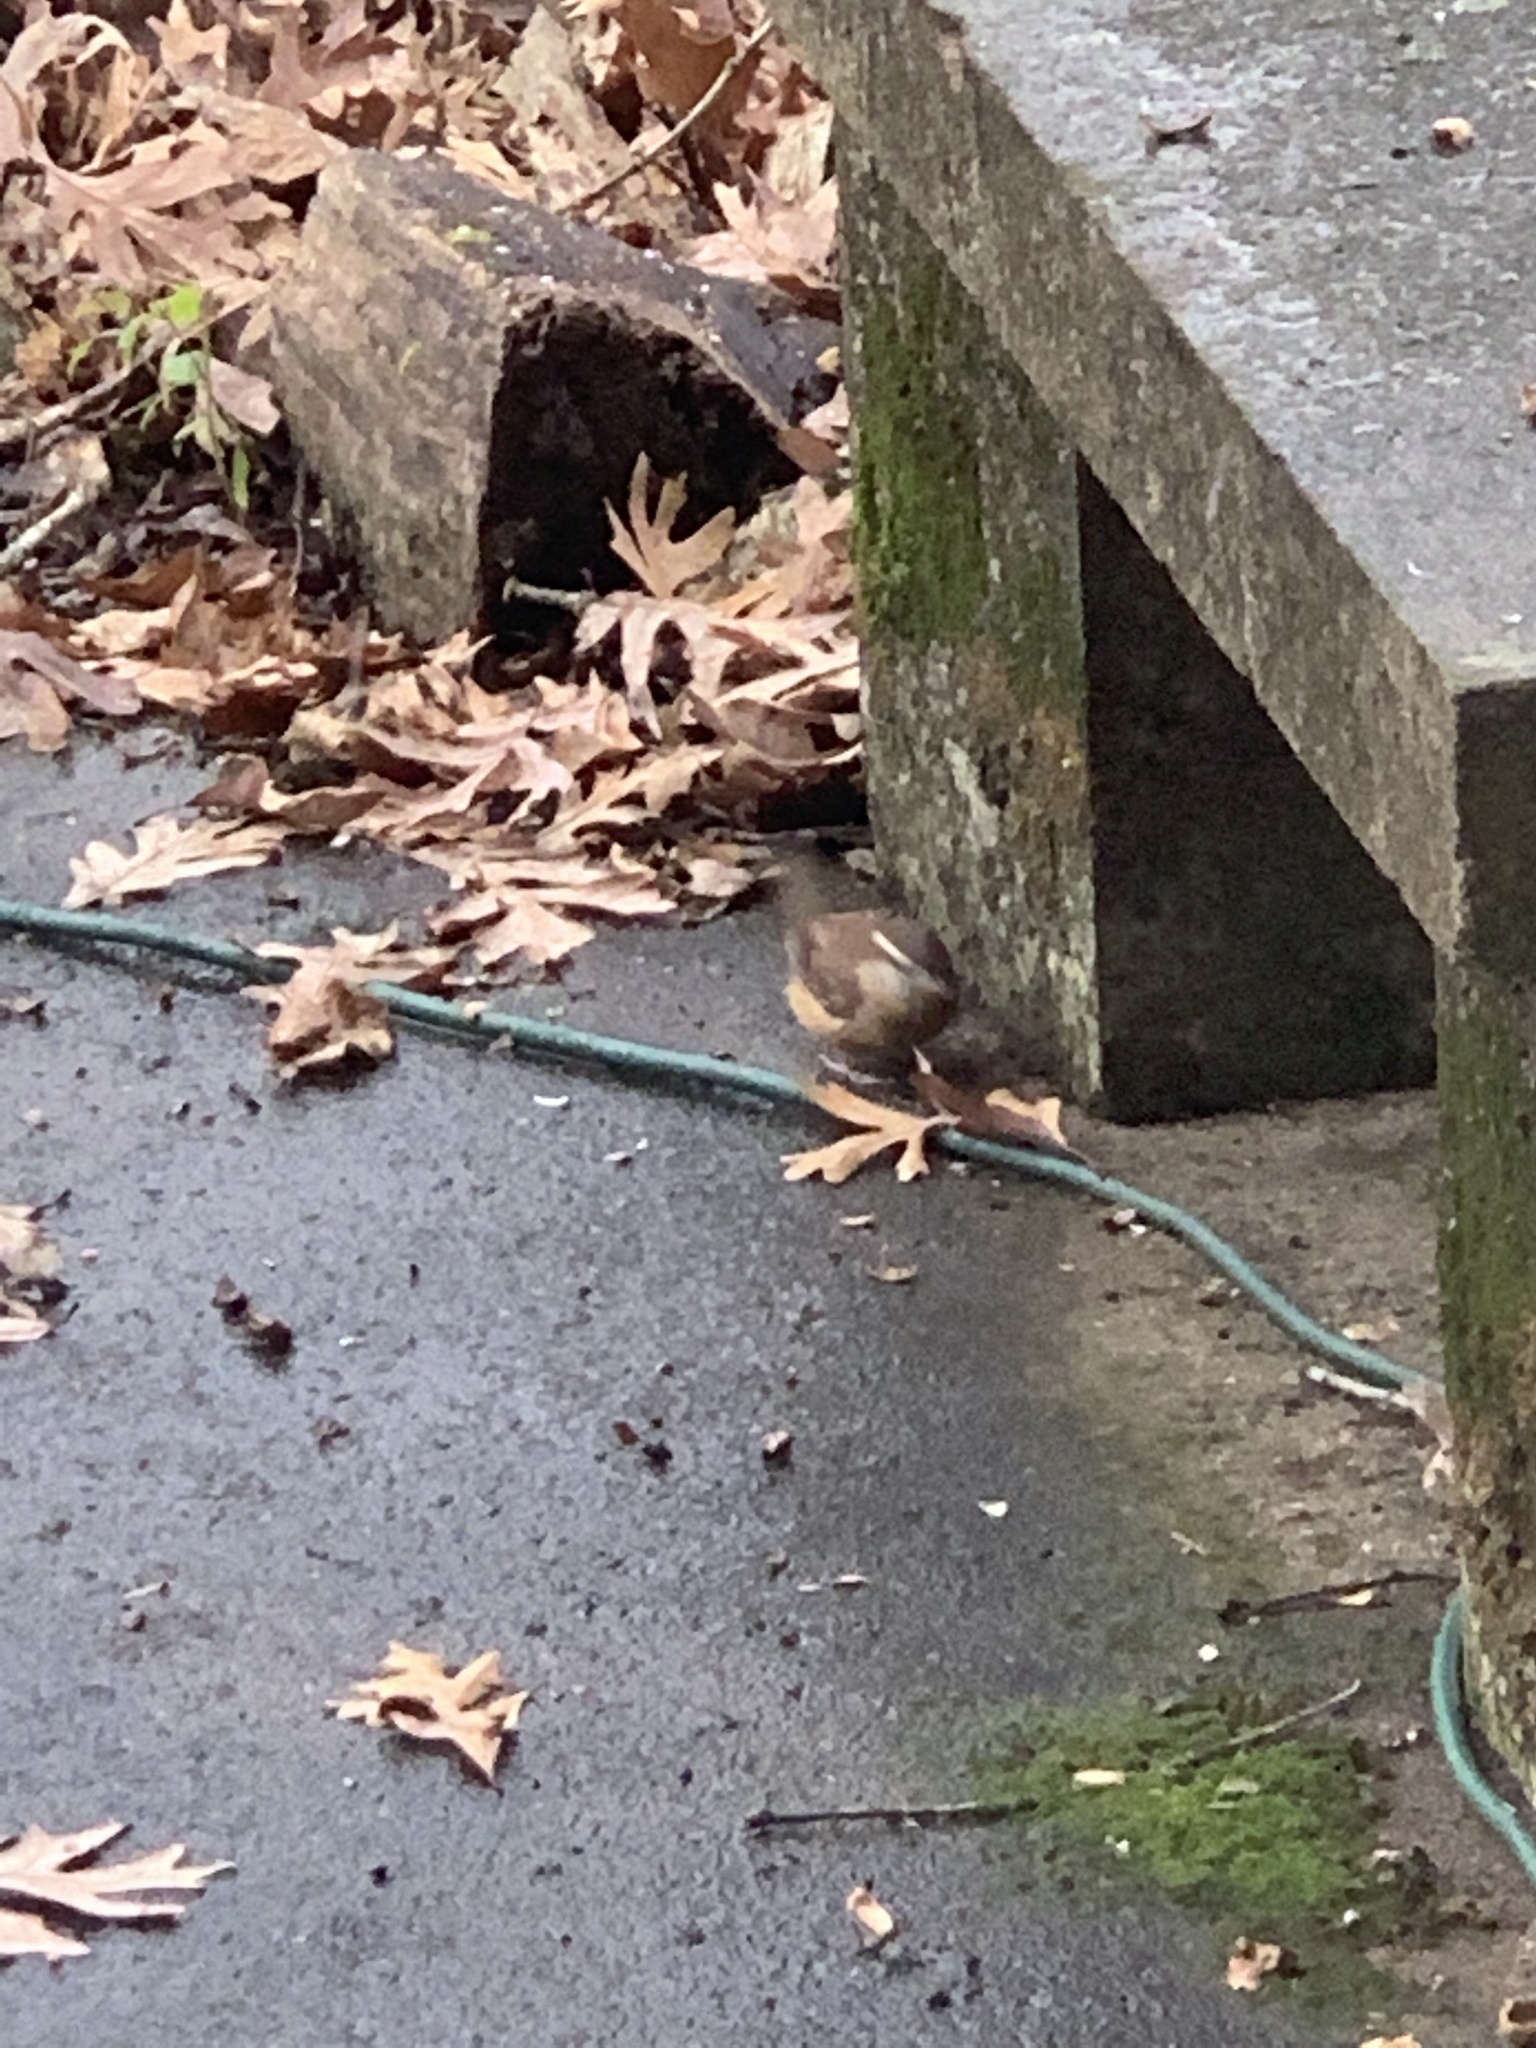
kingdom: Animalia
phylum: Chordata
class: Aves
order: Passeriformes
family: Troglodytidae
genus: Thryothorus
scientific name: Thryothorus ludovicianus
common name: Carolina wren
